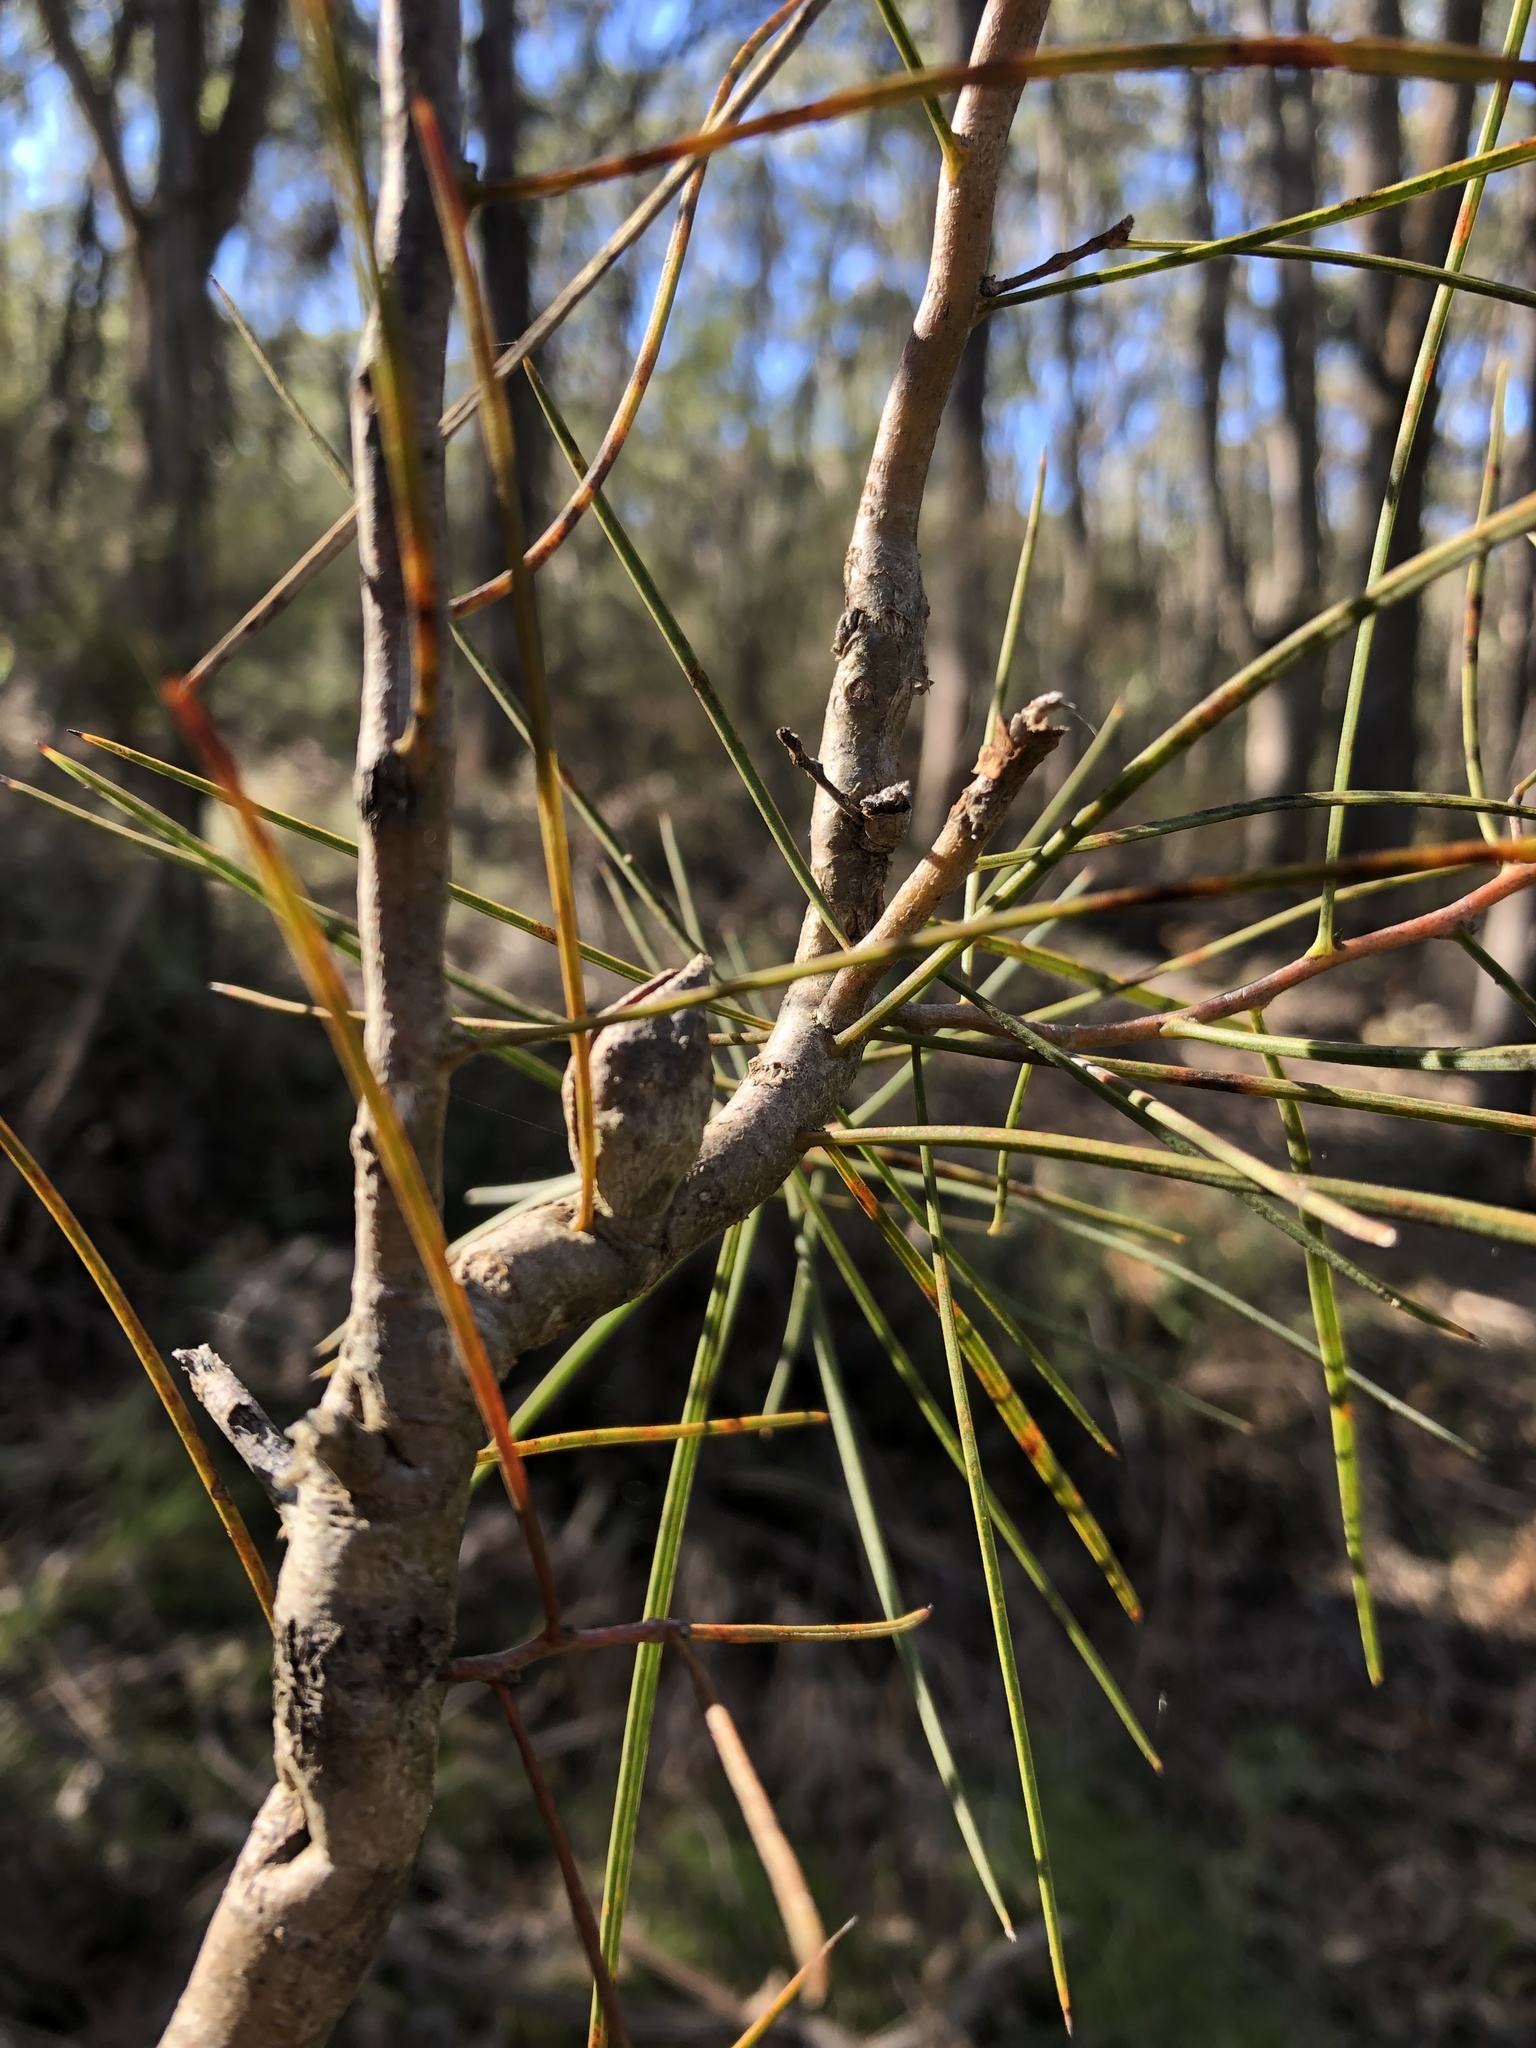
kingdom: Plantae
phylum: Tracheophyta
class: Magnoliopsida
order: Proteales
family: Proteaceae
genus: Hakea
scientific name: Hakea carinata
